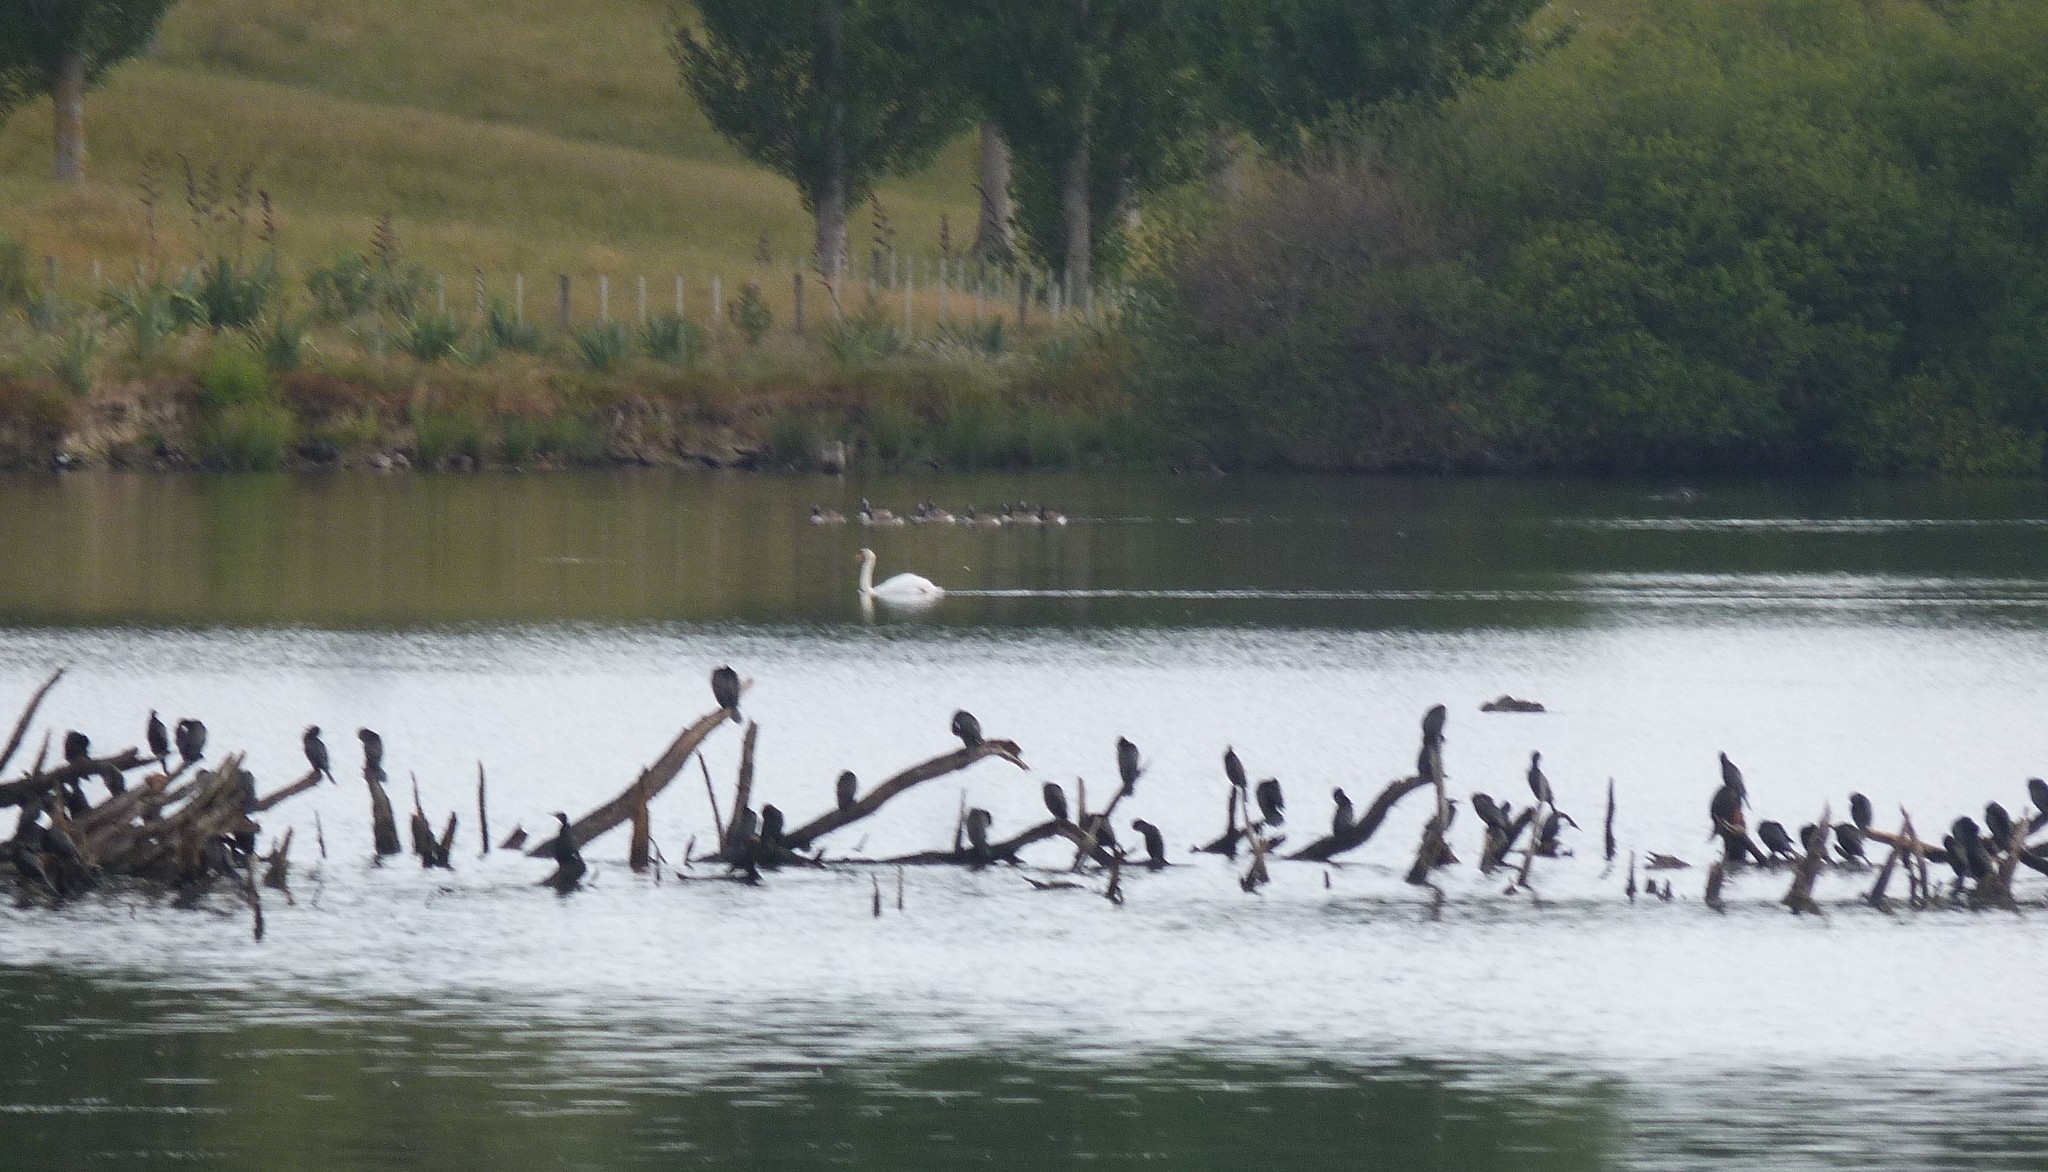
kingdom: Animalia
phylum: Chordata
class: Aves
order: Anseriformes
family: Anatidae
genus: Cygnus
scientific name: Cygnus olor
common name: Mute swan
